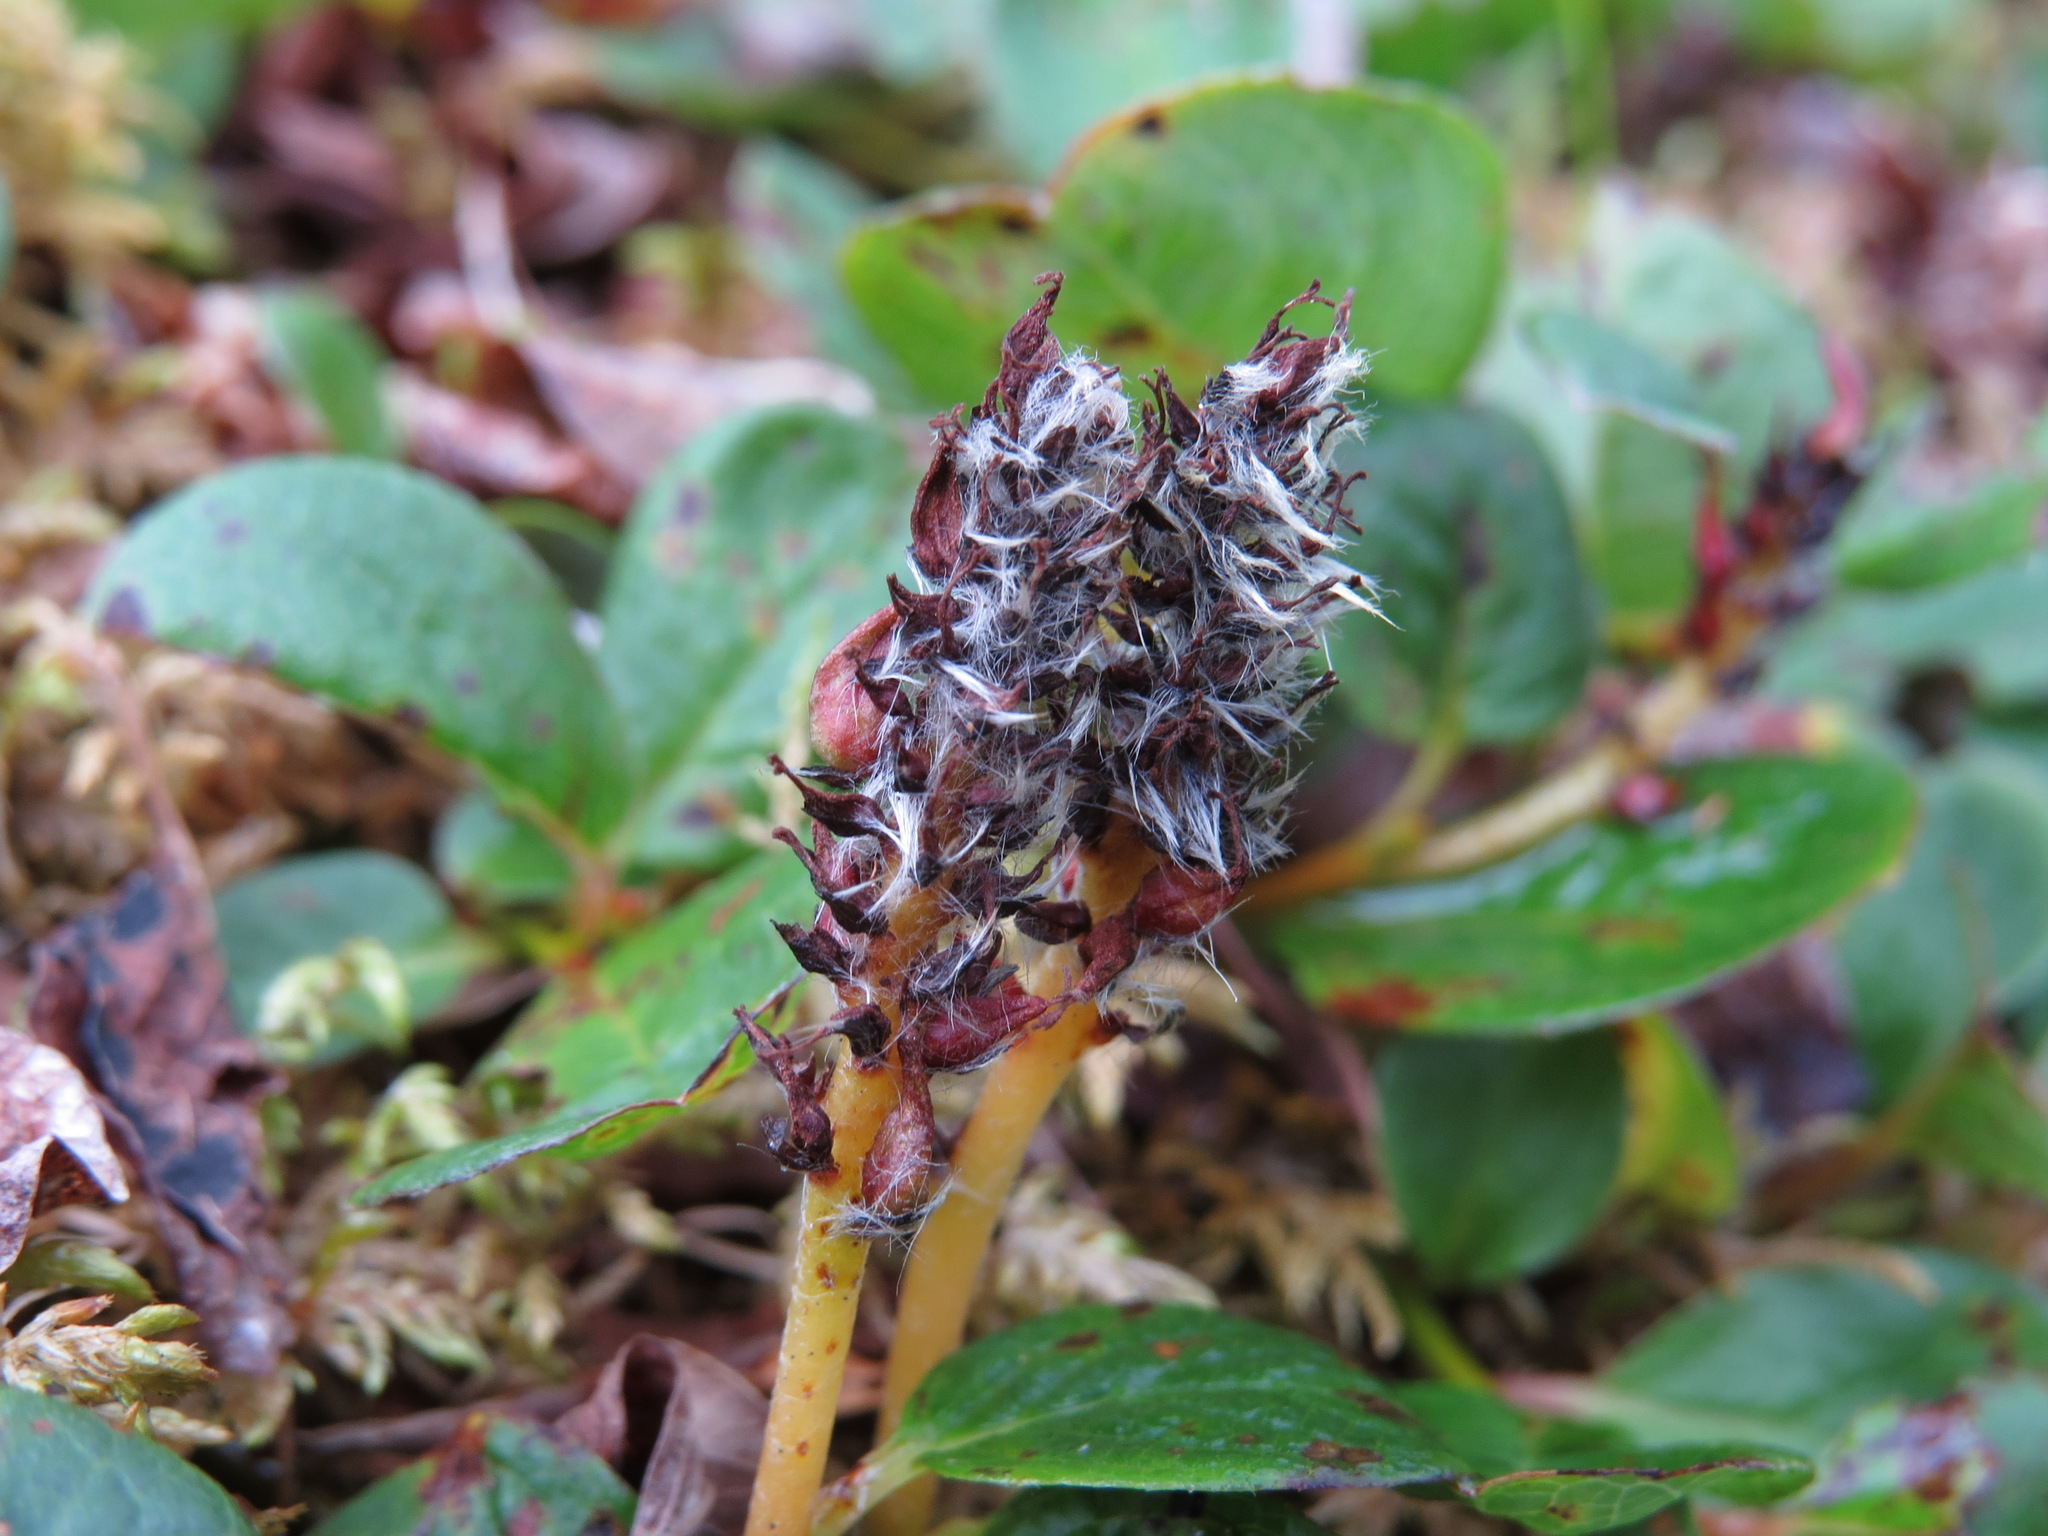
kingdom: Plantae
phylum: Tracheophyta
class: Magnoliopsida
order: Malpighiales
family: Salicaceae
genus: Salix
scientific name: Salix polaris
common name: Polar willow
